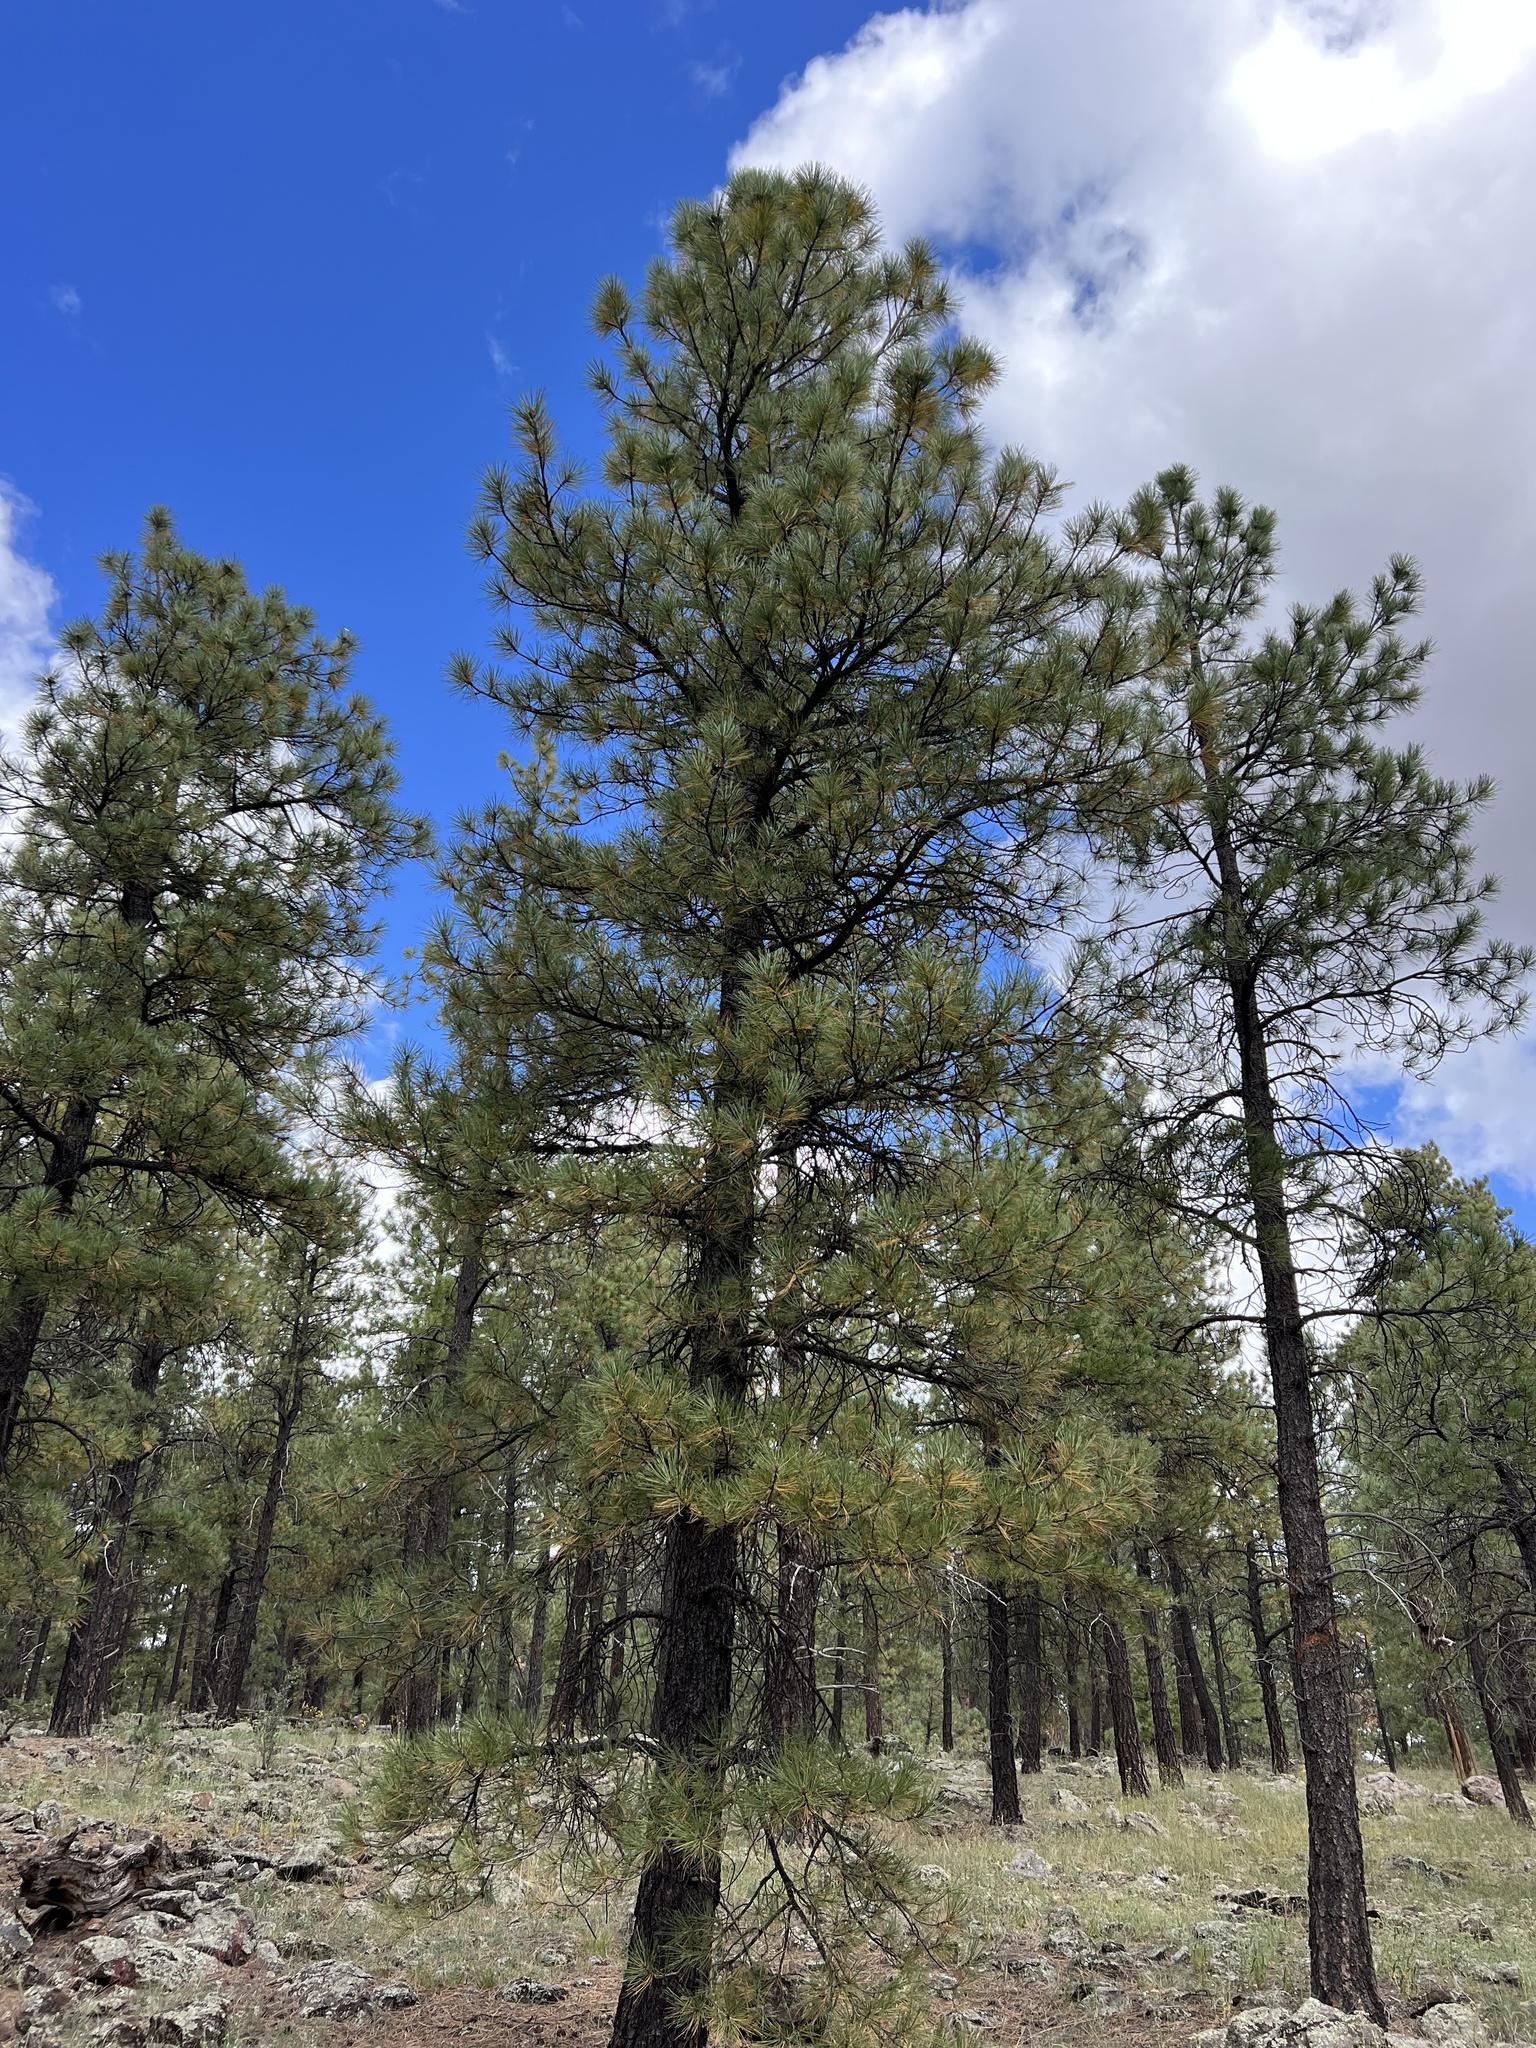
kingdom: Plantae
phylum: Tracheophyta
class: Pinopsida
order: Pinales
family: Pinaceae
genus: Pinus
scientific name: Pinus ponderosa
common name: Western yellow-pine
